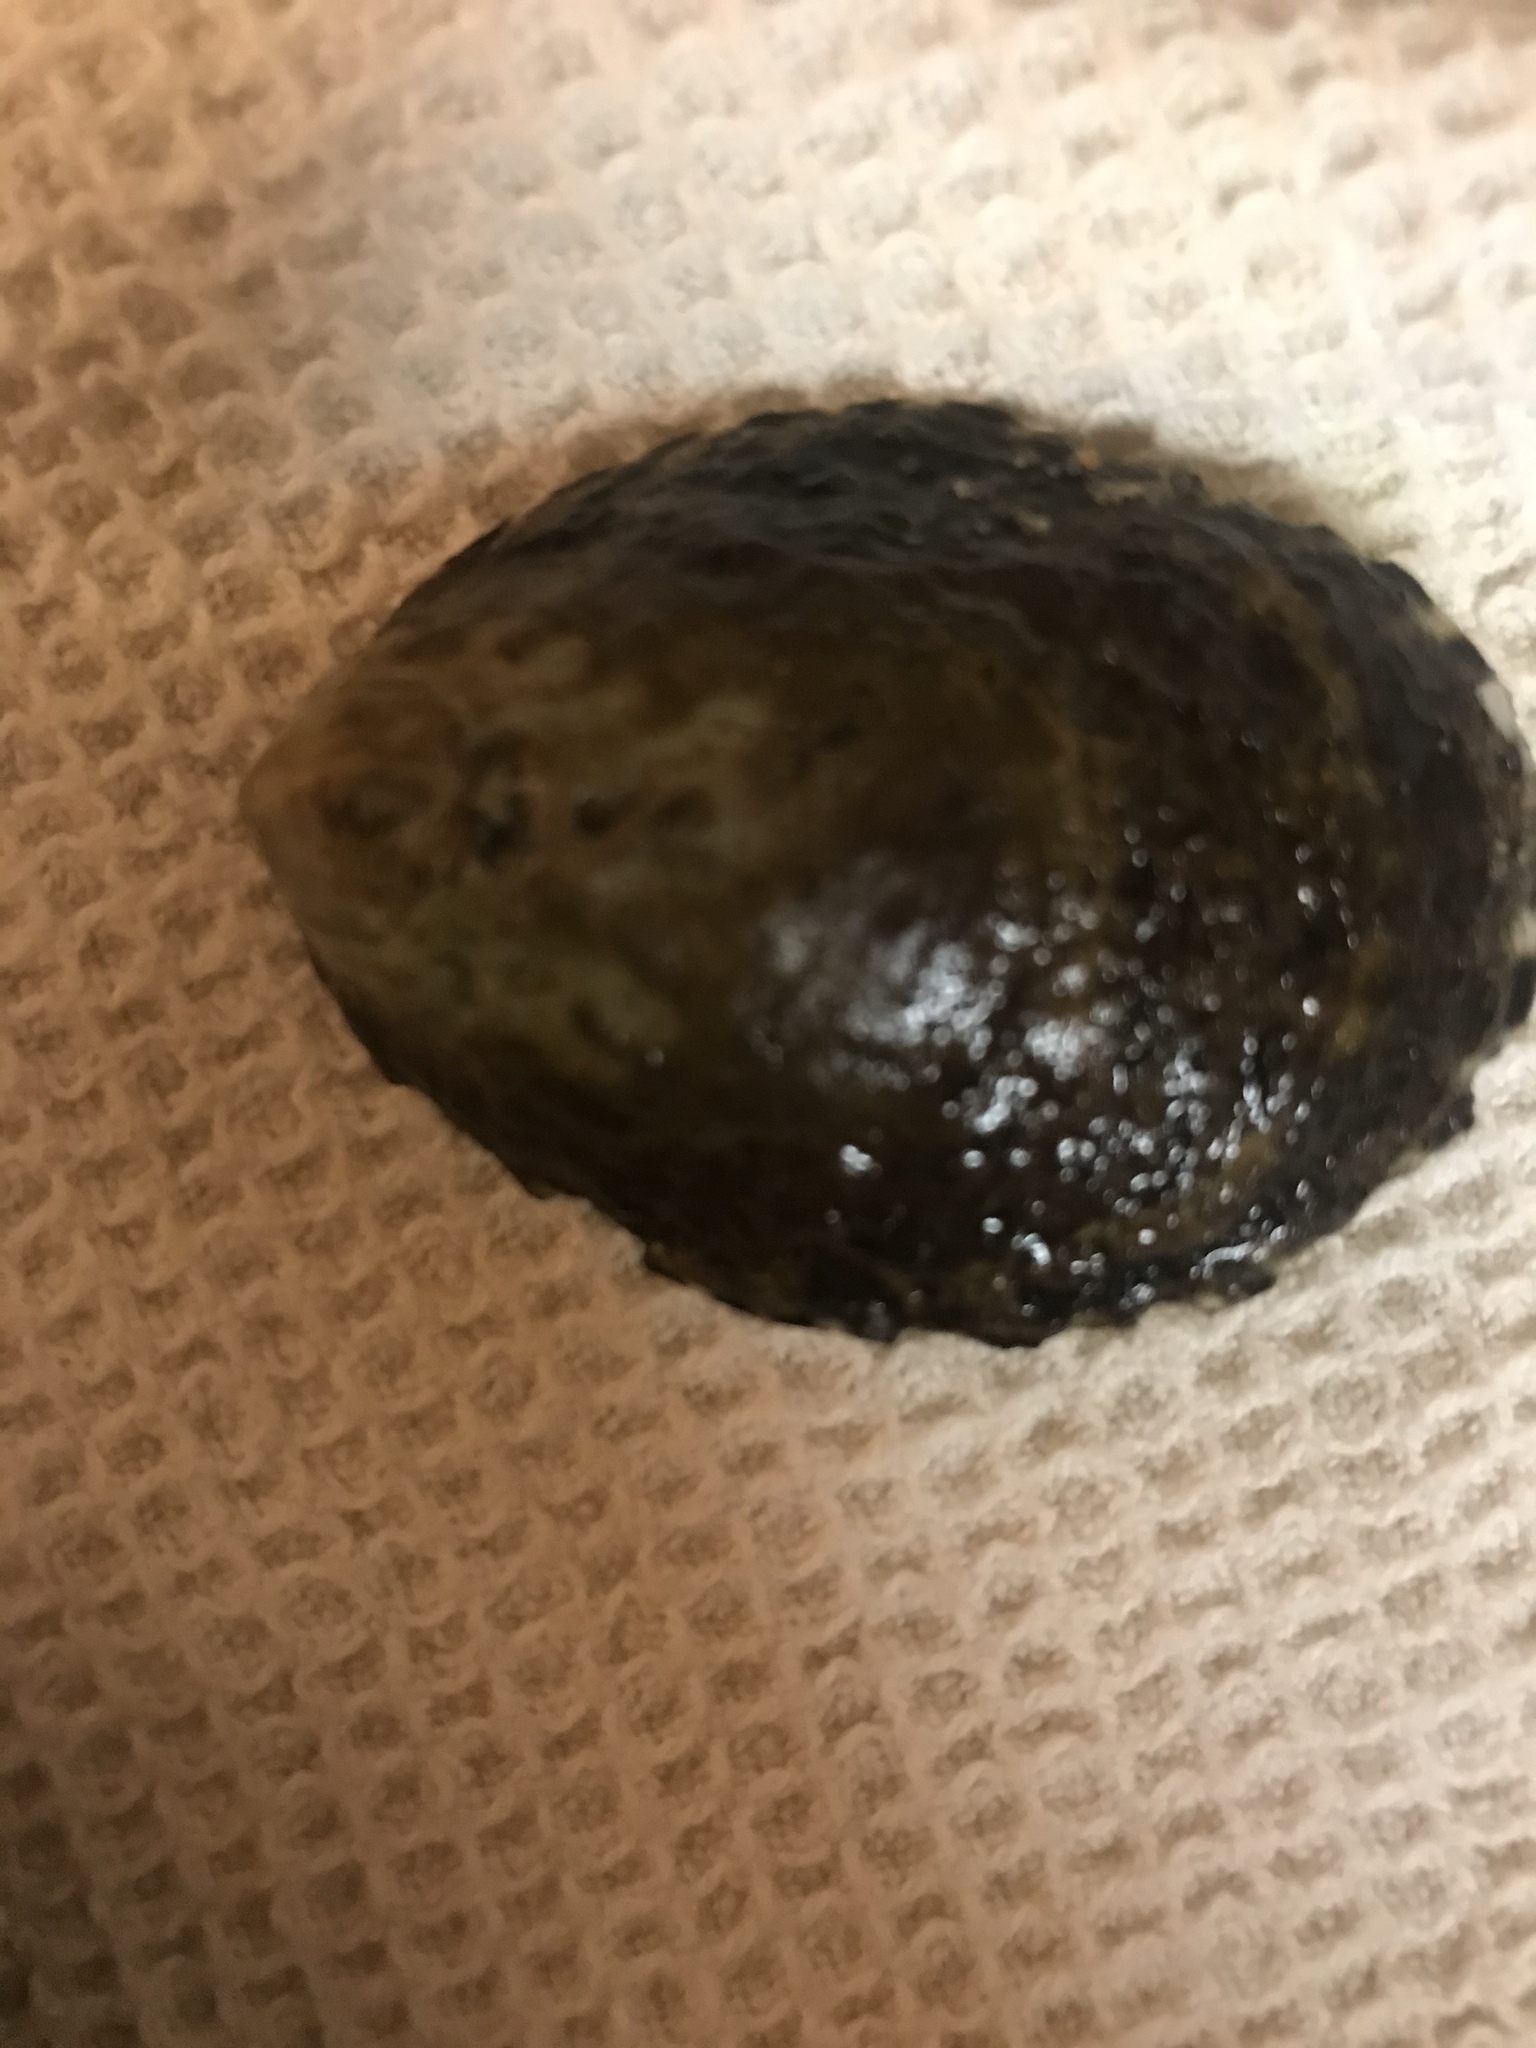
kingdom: Animalia
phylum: Mollusca
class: Gastropoda
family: Lottiidae
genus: Lottia
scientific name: Lottia gigantea
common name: Owl limpet
